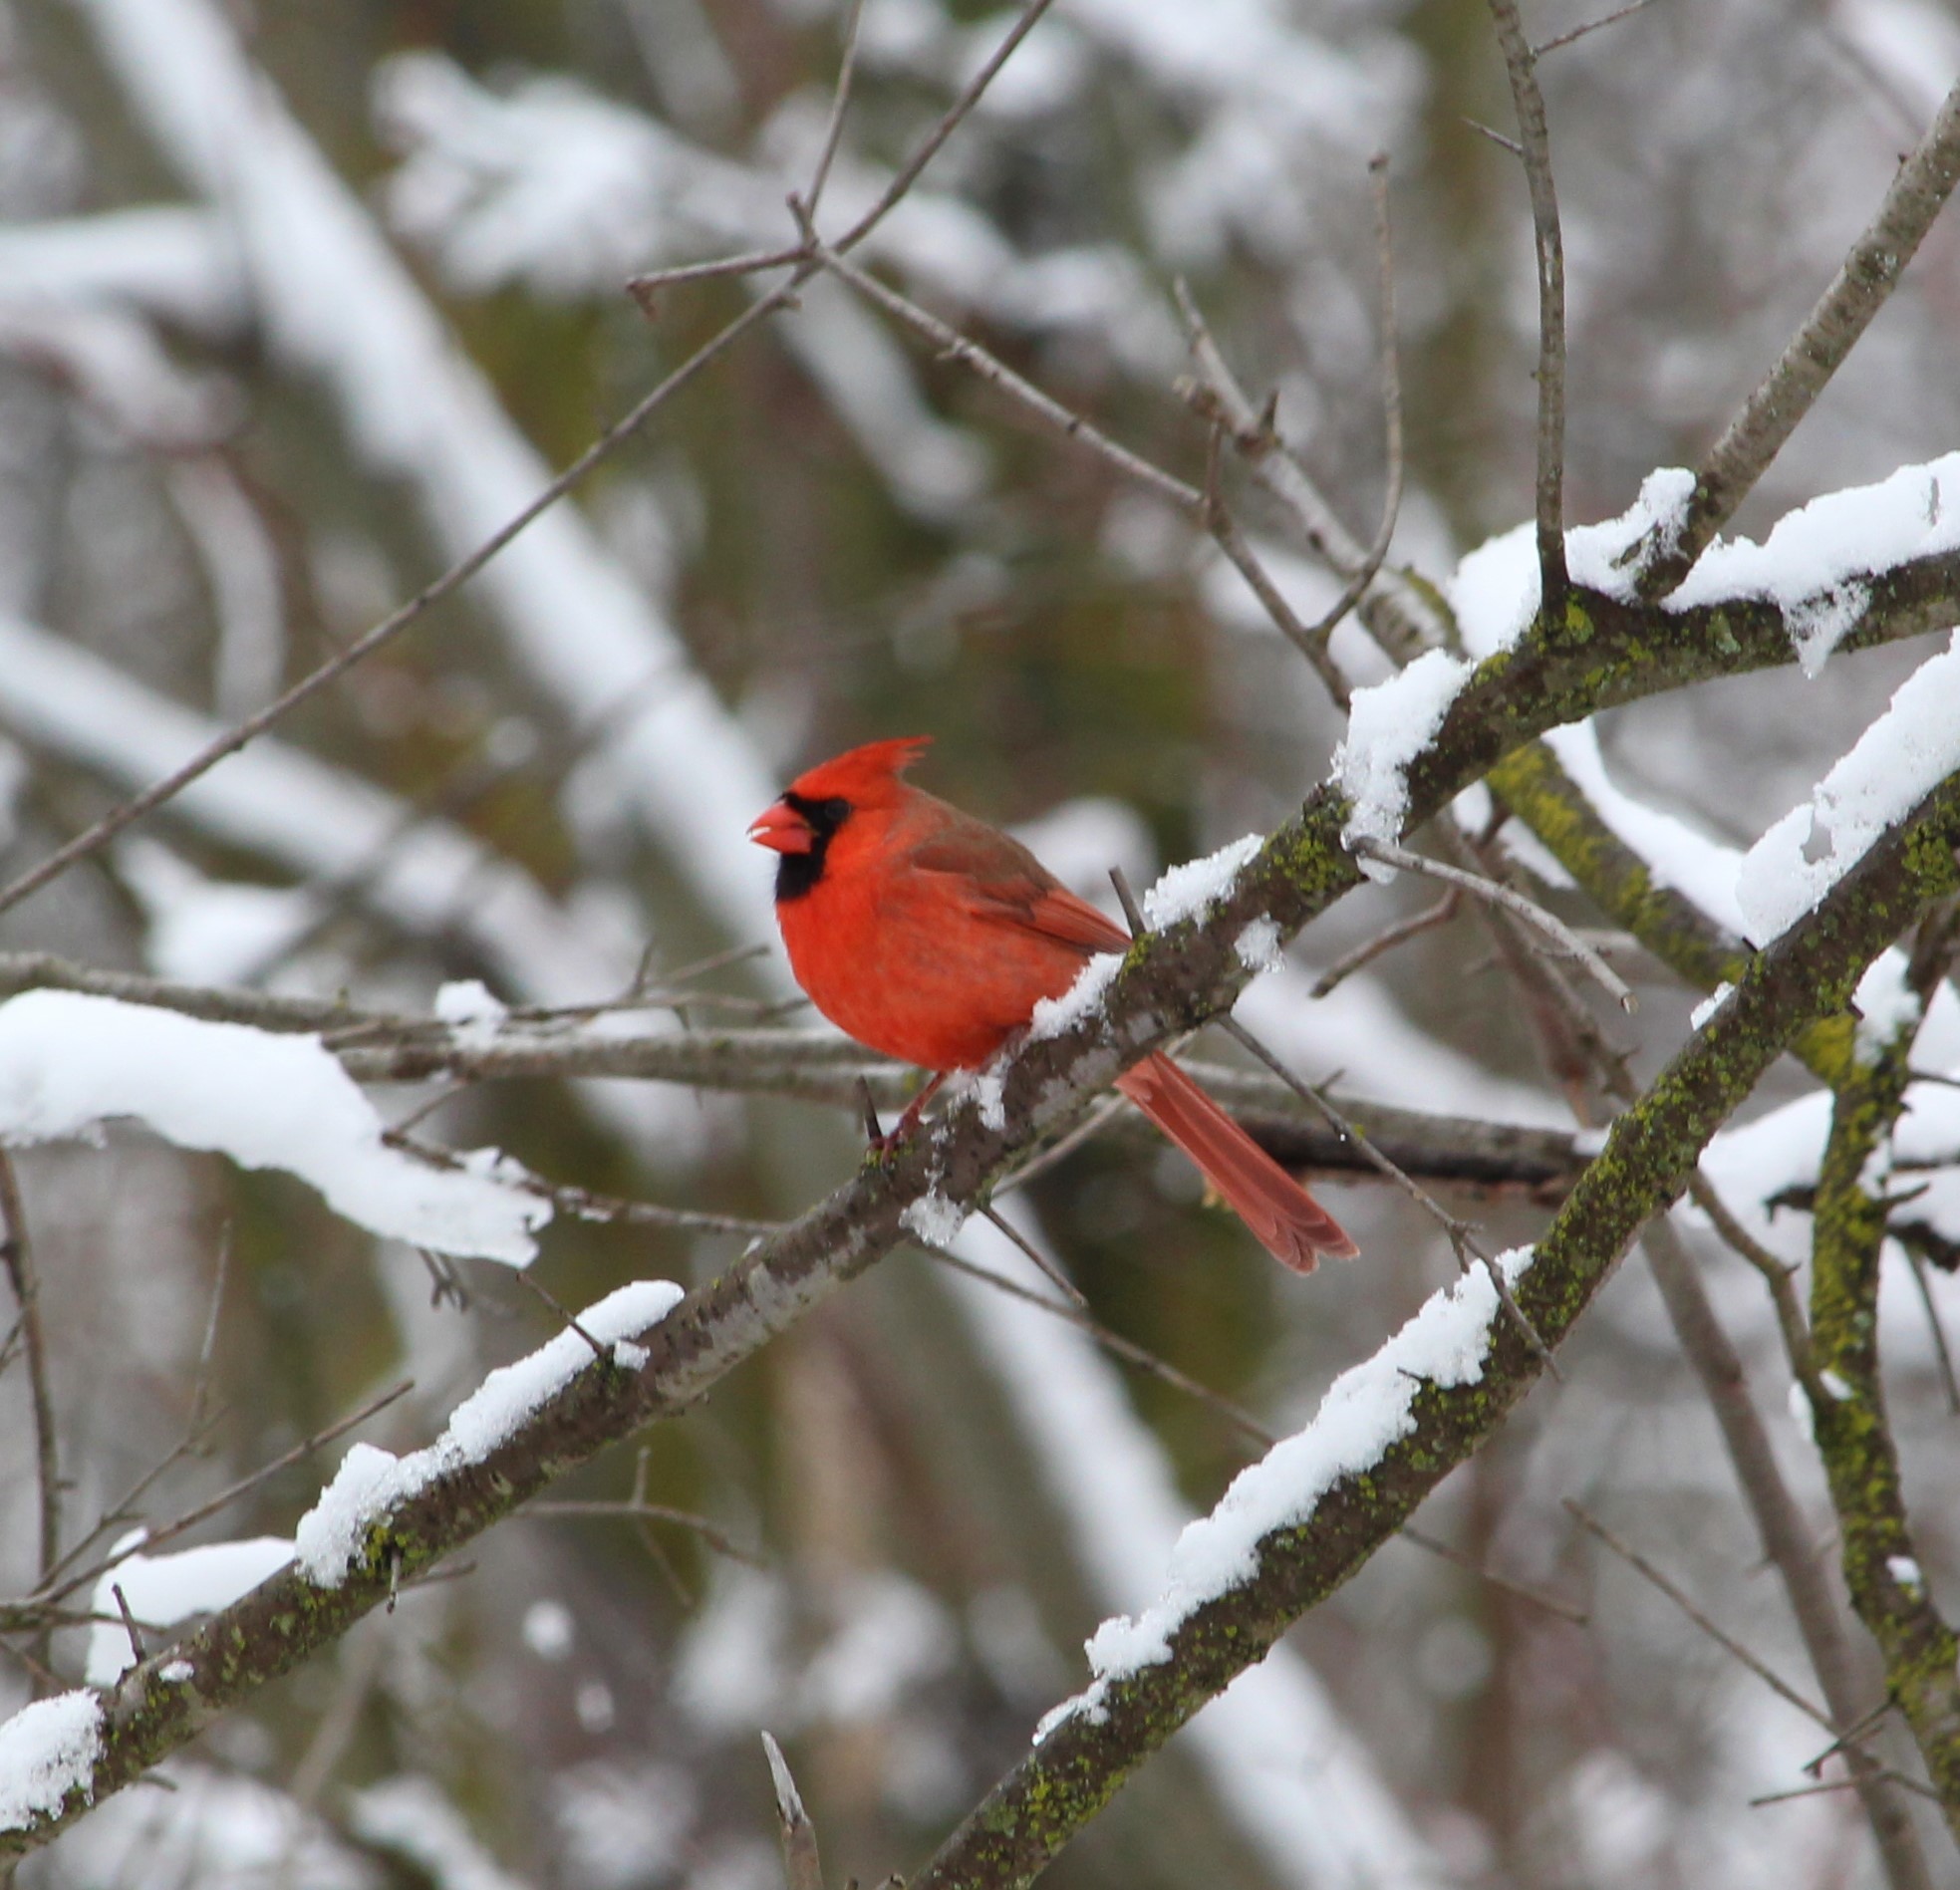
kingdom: Animalia
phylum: Chordata
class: Aves
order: Passeriformes
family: Cardinalidae
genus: Cardinalis
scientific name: Cardinalis cardinalis
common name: Northern cardinal
